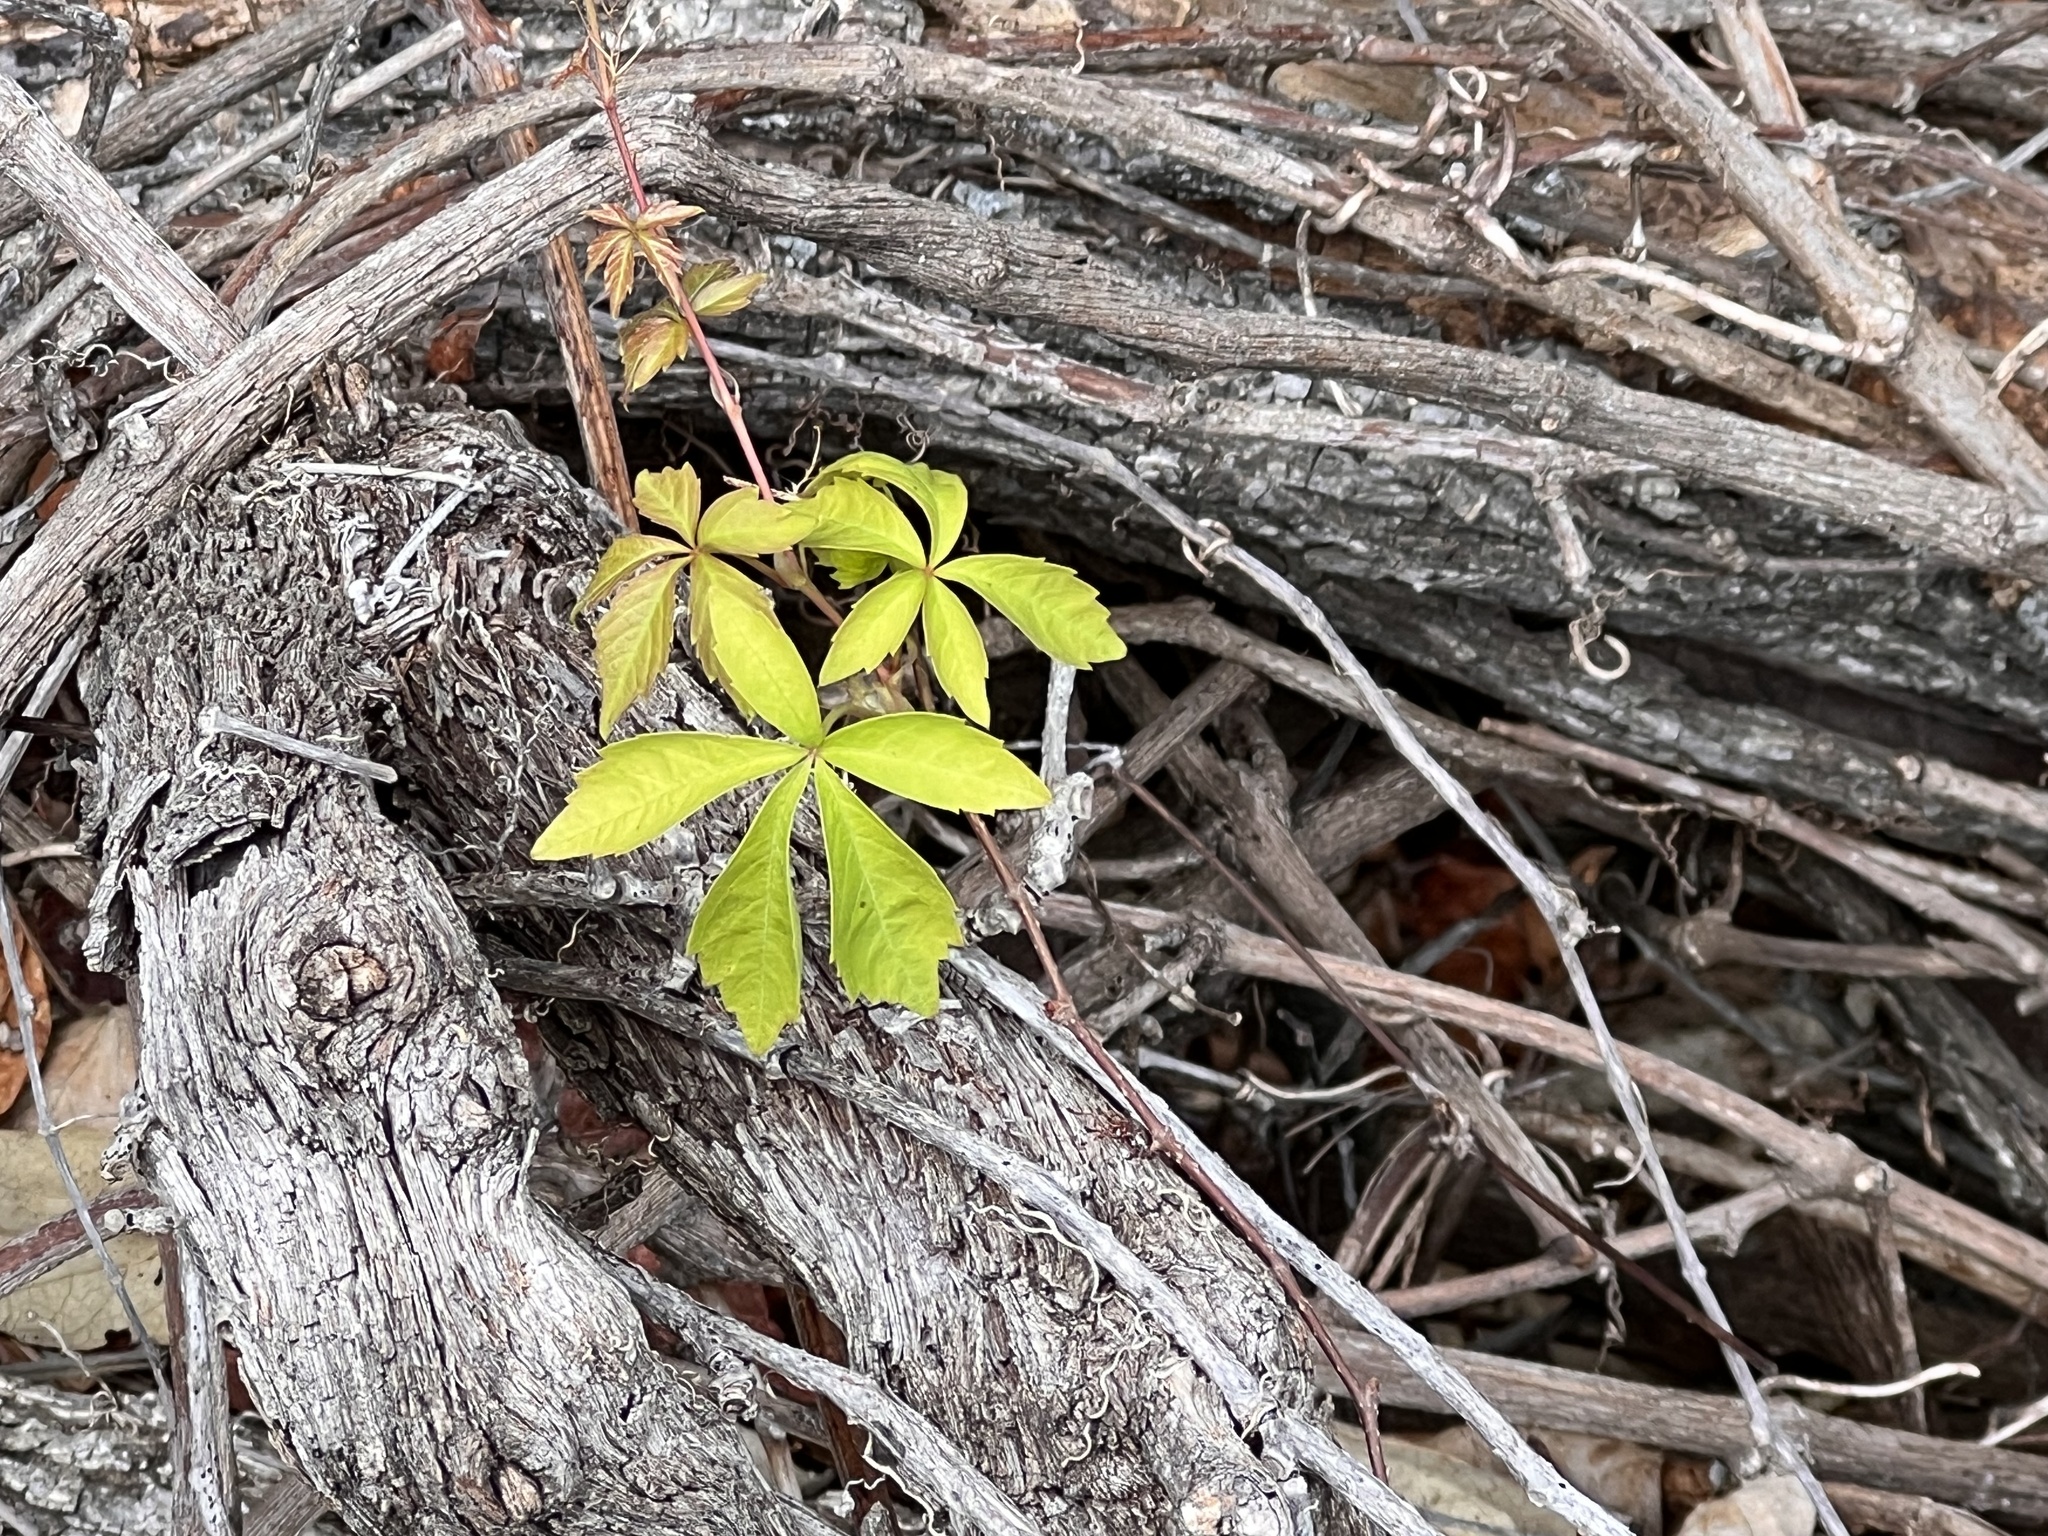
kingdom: Plantae
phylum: Tracheophyta
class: Magnoliopsida
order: Vitales
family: Vitaceae
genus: Parthenocissus
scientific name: Parthenocissus quinquefolia
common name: Virginia-creeper
